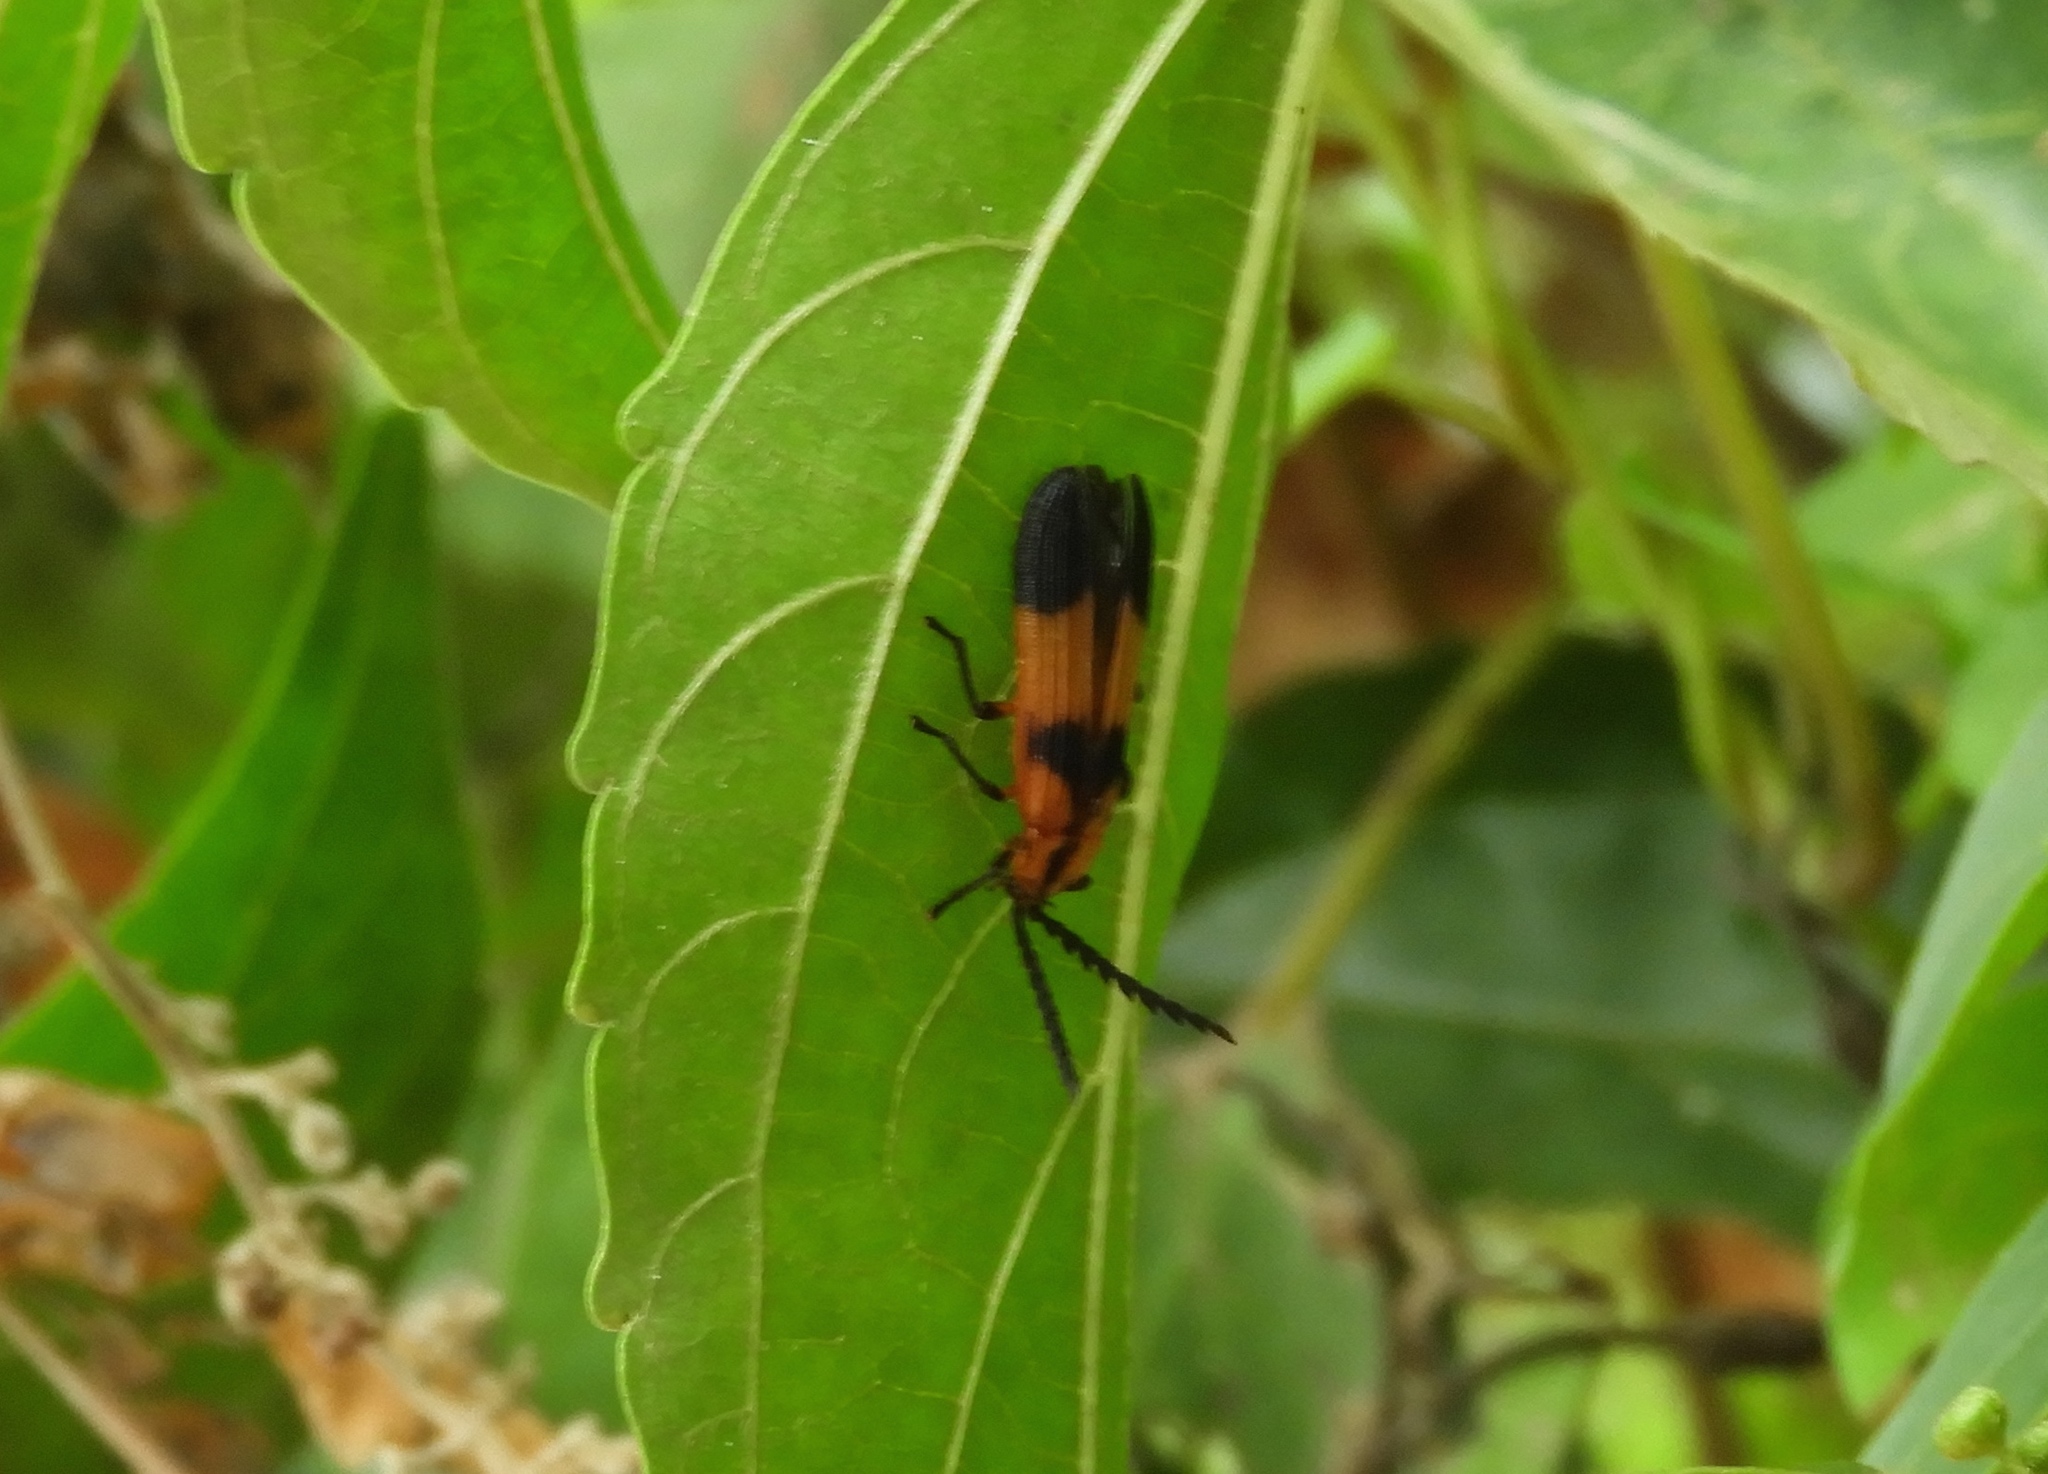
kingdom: Animalia
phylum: Arthropoda
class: Insecta
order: Coleoptera
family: Lycidae
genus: Calopteron
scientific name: Calopteron
